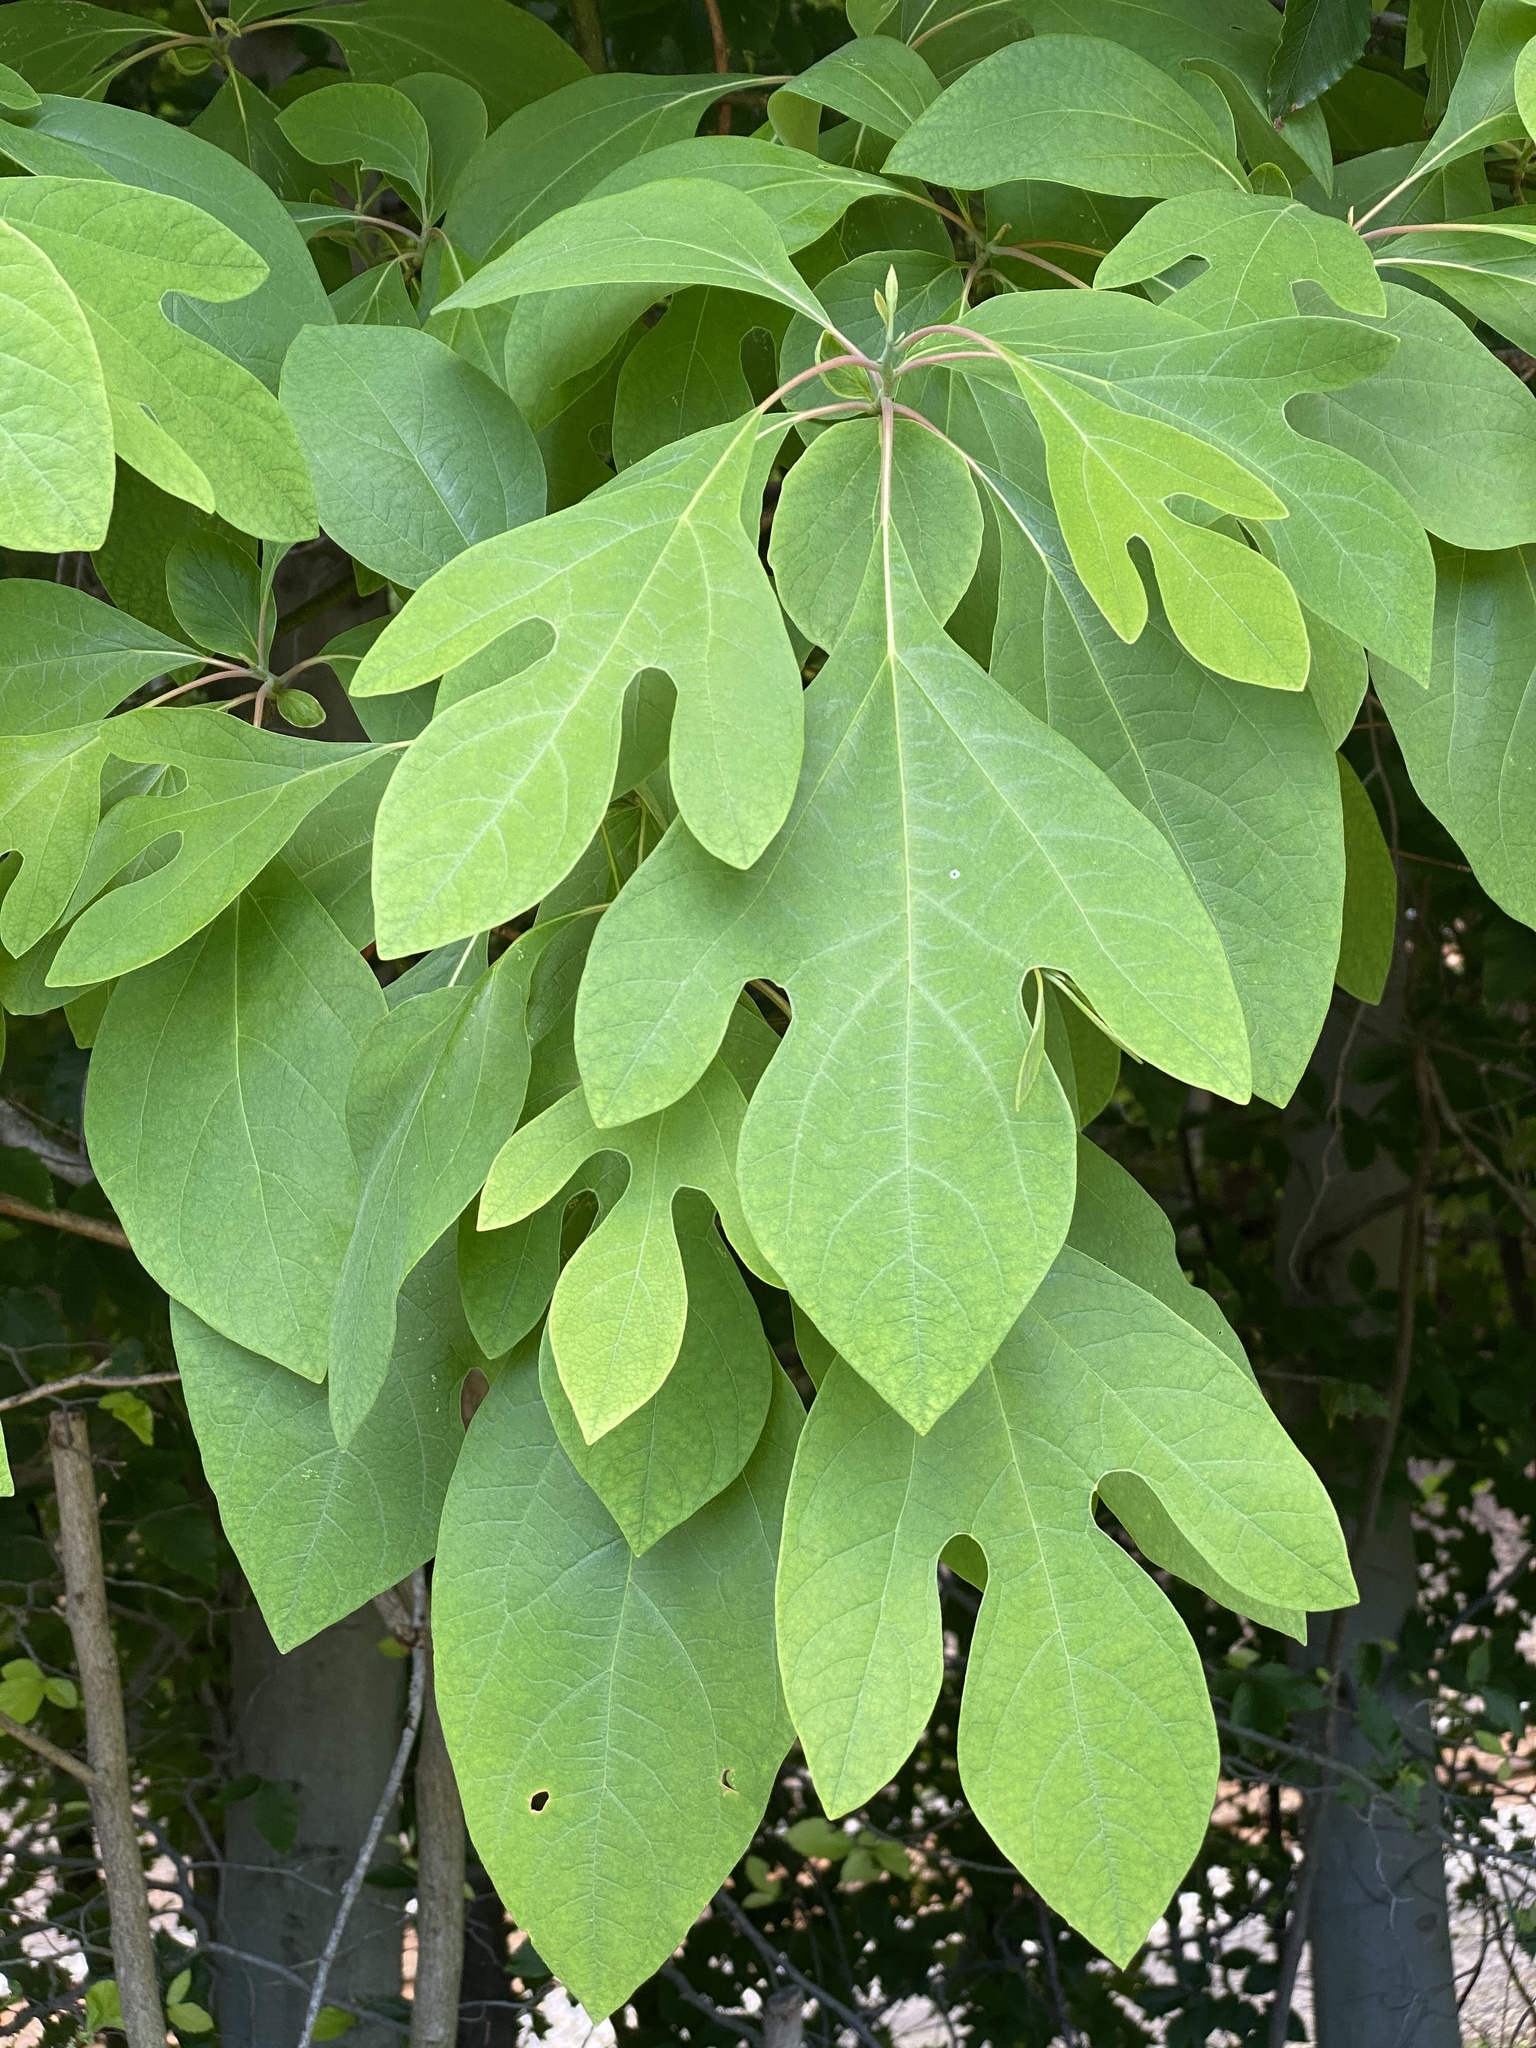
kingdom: Plantae
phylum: Tracheophyta
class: Magnoliopsida
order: Laurales
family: Lauraceae
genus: Sassafras
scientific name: Sassafras albidum
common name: Sassafras
